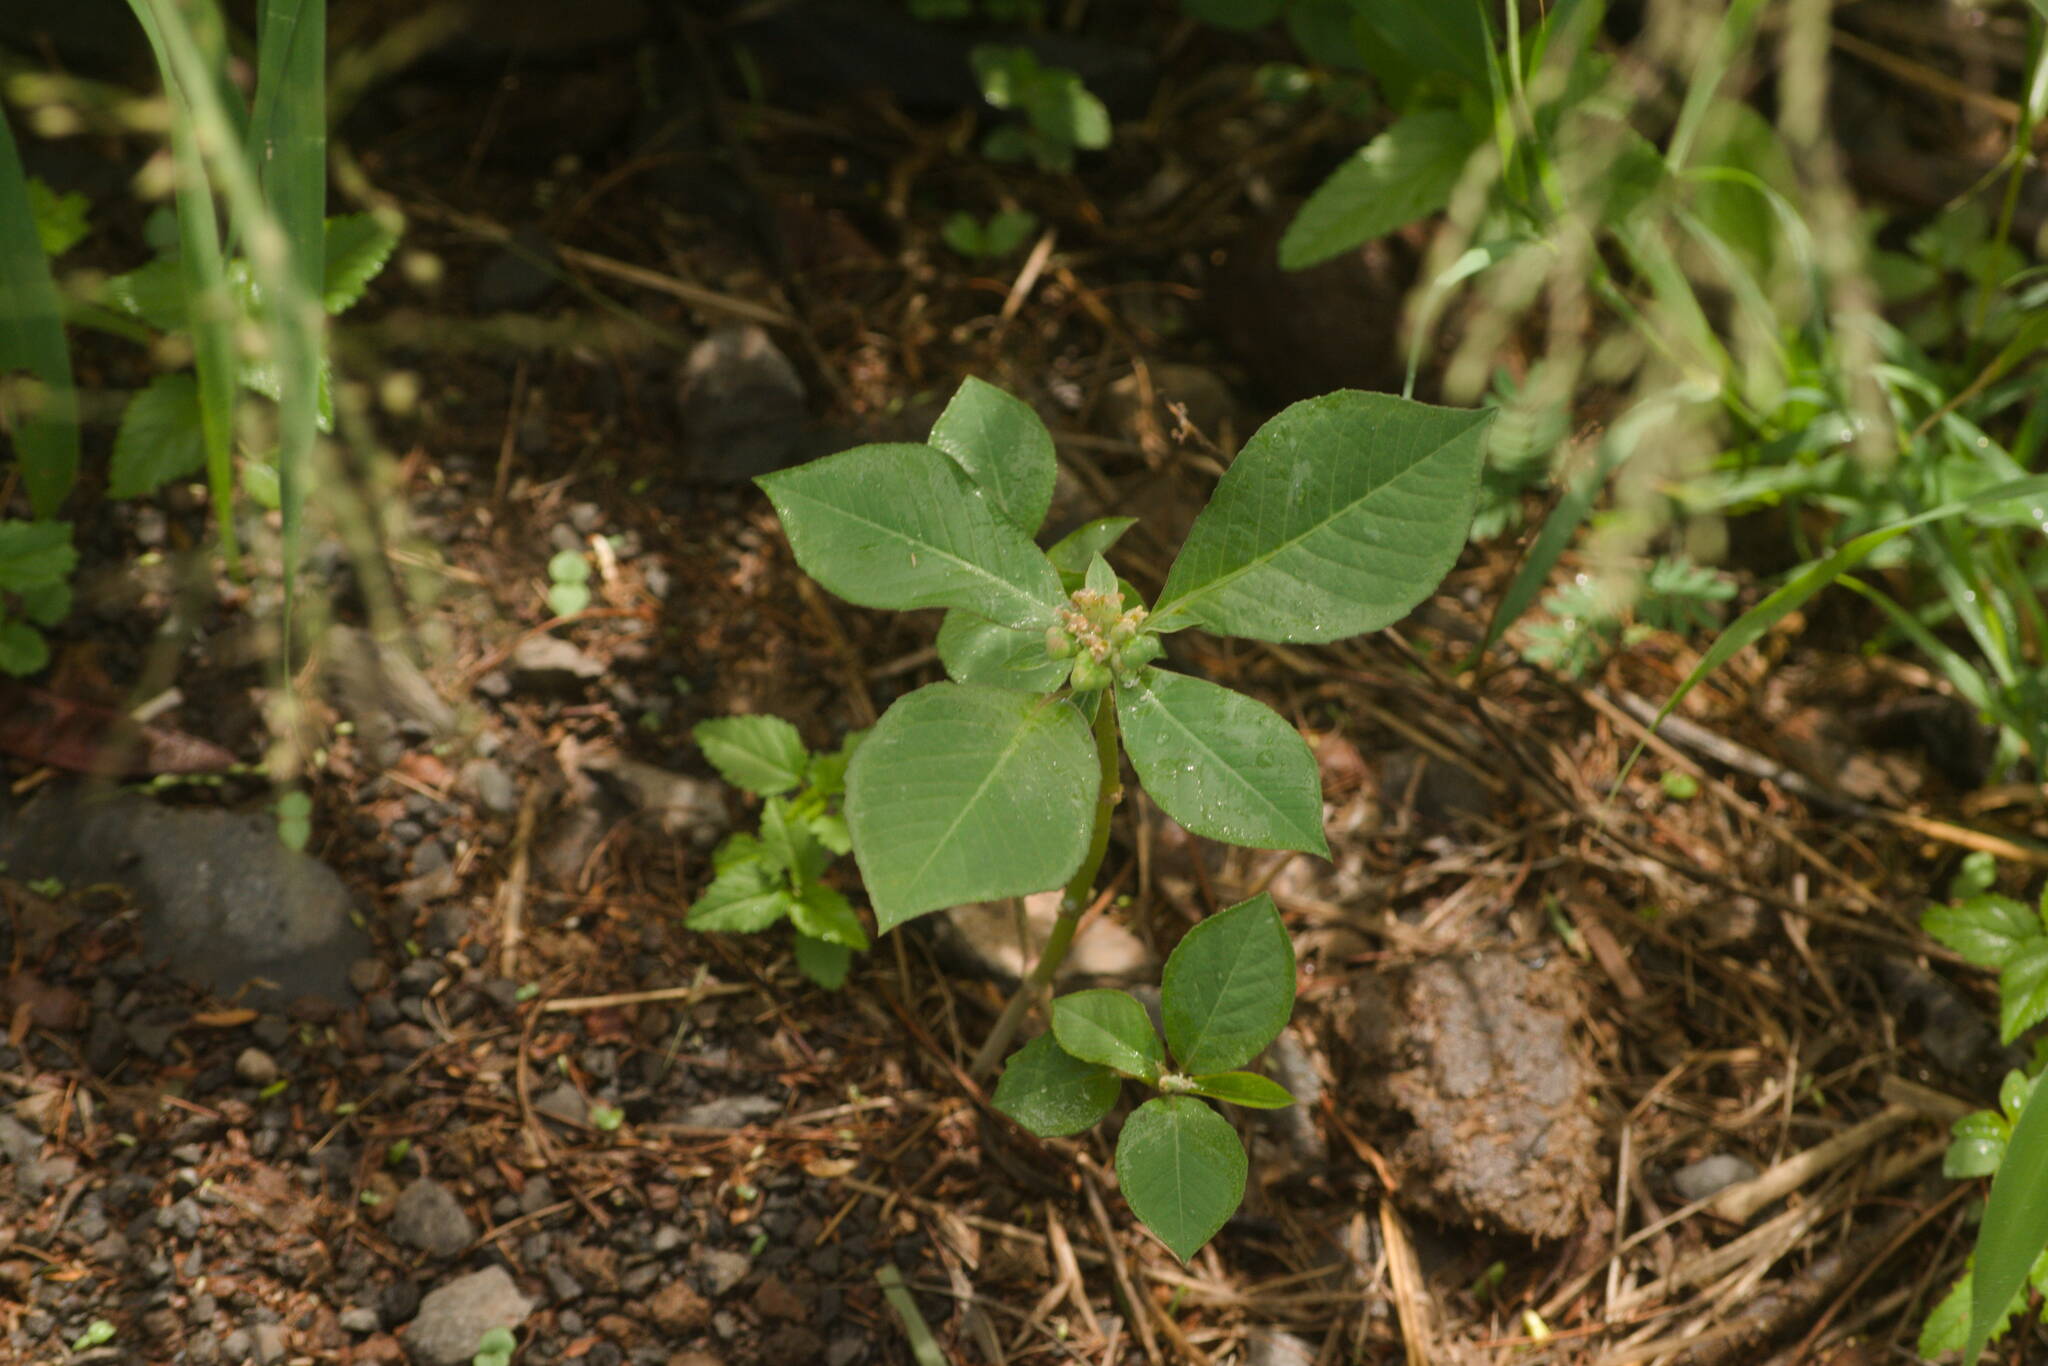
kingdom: Plantae
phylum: Tracheophyta
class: Magnoliopsida
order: Malpighiales
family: Euphorbiaceae
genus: Euphorbia
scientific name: Euphorbia heterophylla
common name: Mexican fireplant
